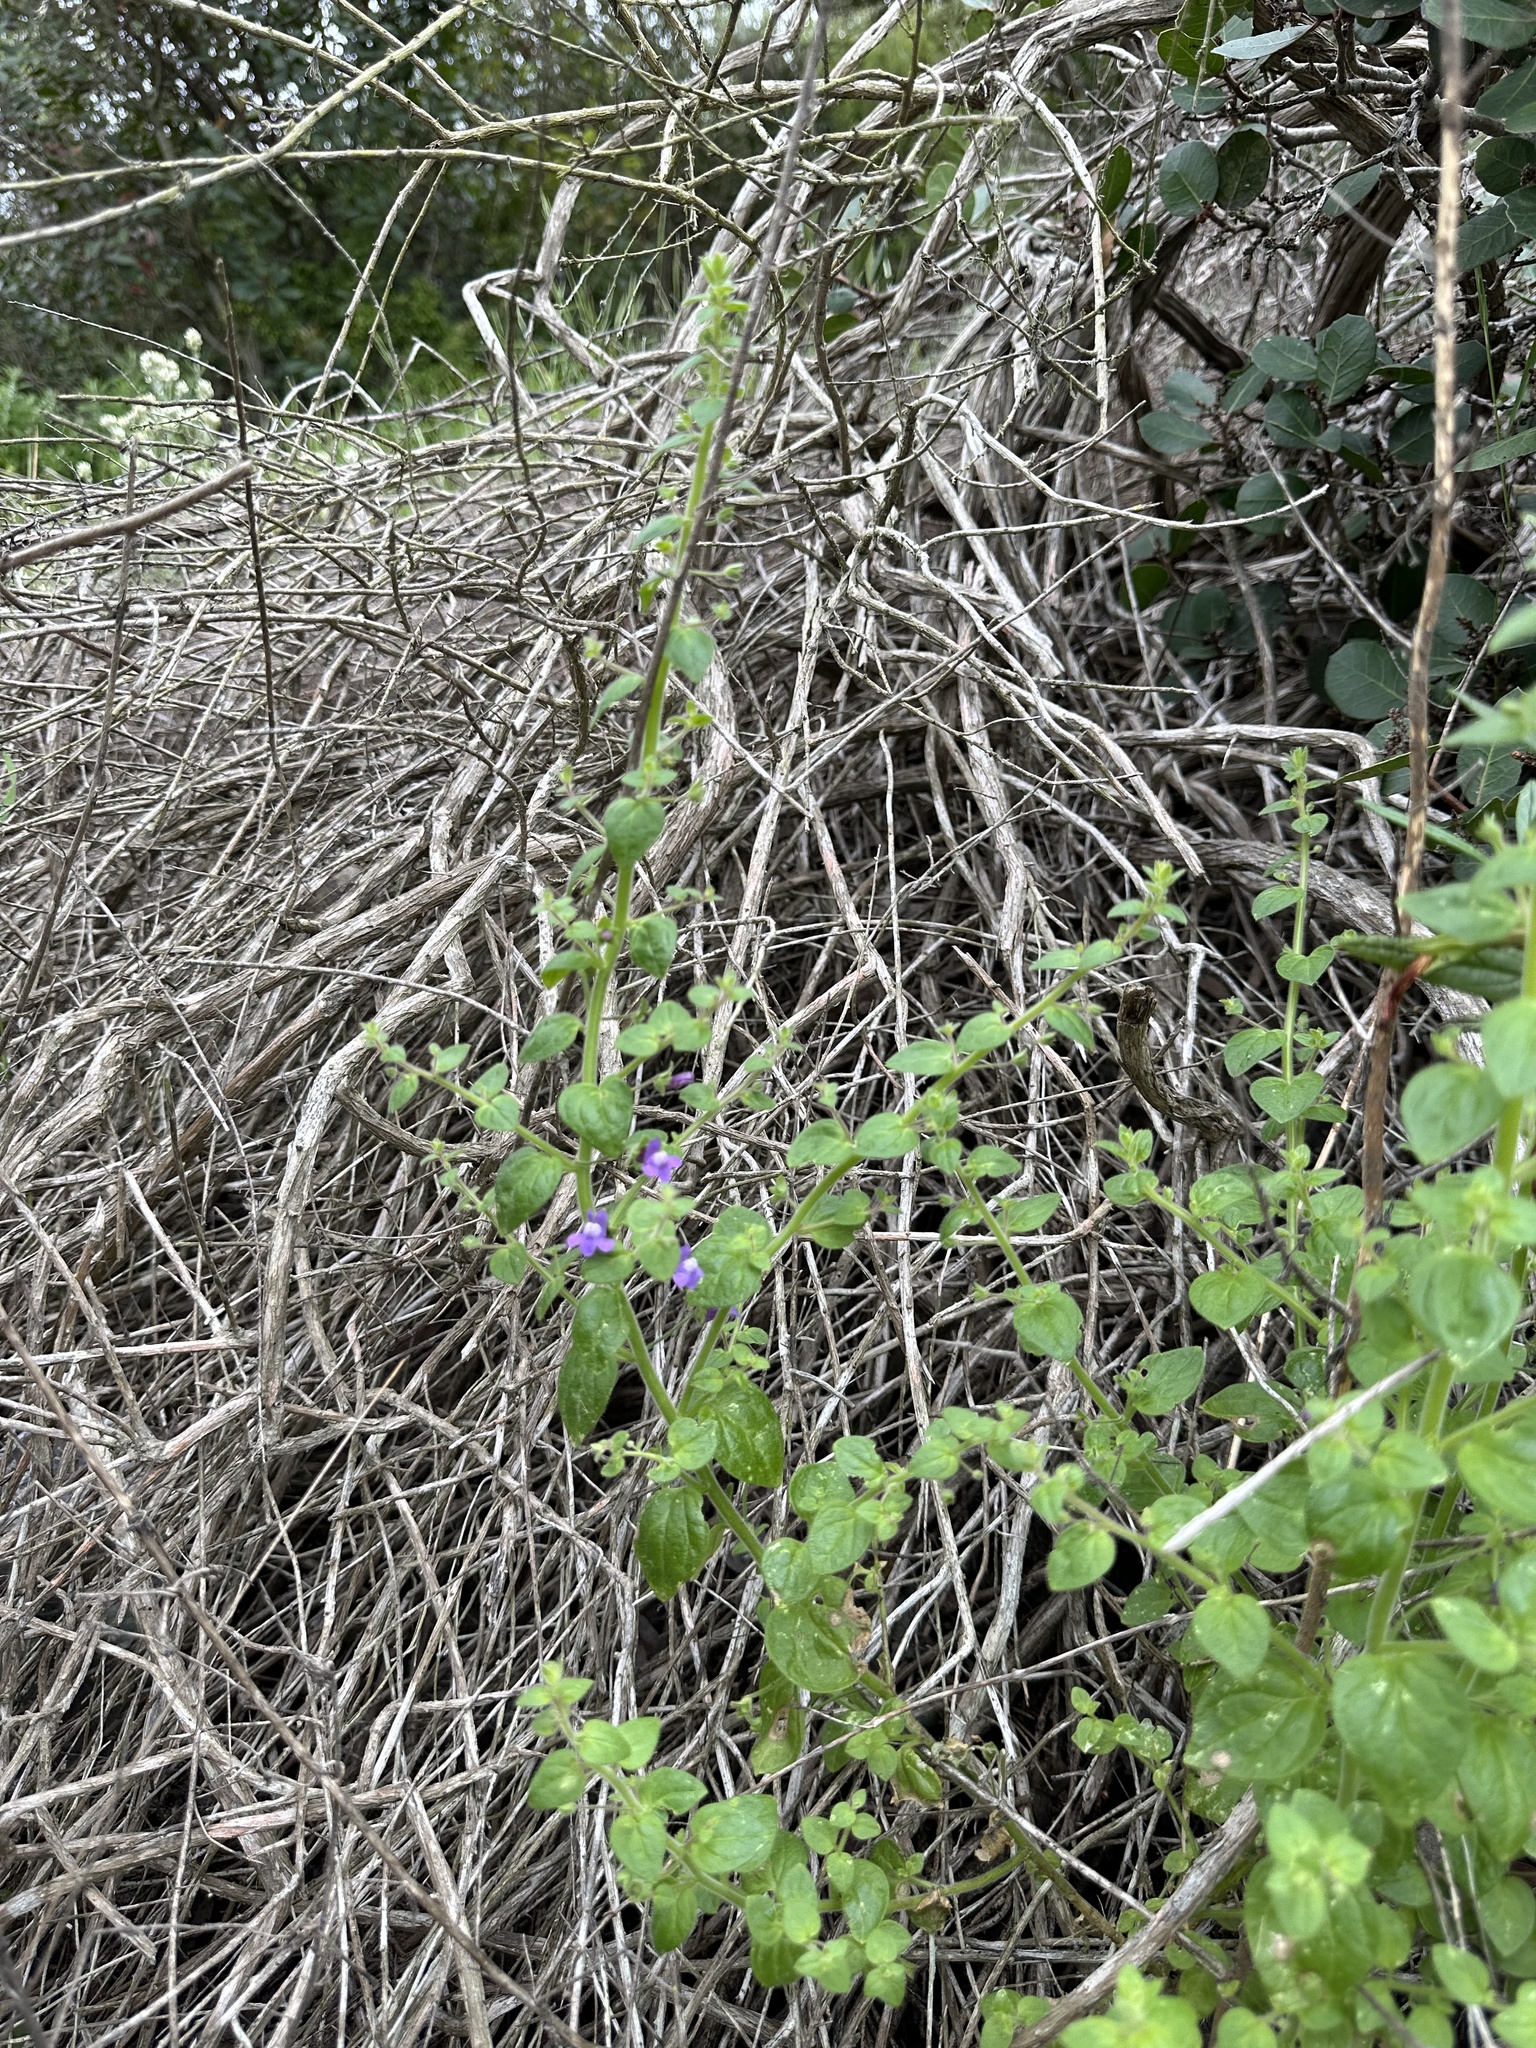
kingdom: Plantae
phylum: Tracheophyta
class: Magnoliopsida
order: Lamiales
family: Plantaginaceae
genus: Sairocarpus
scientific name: Sairocarpus nuttallianus
